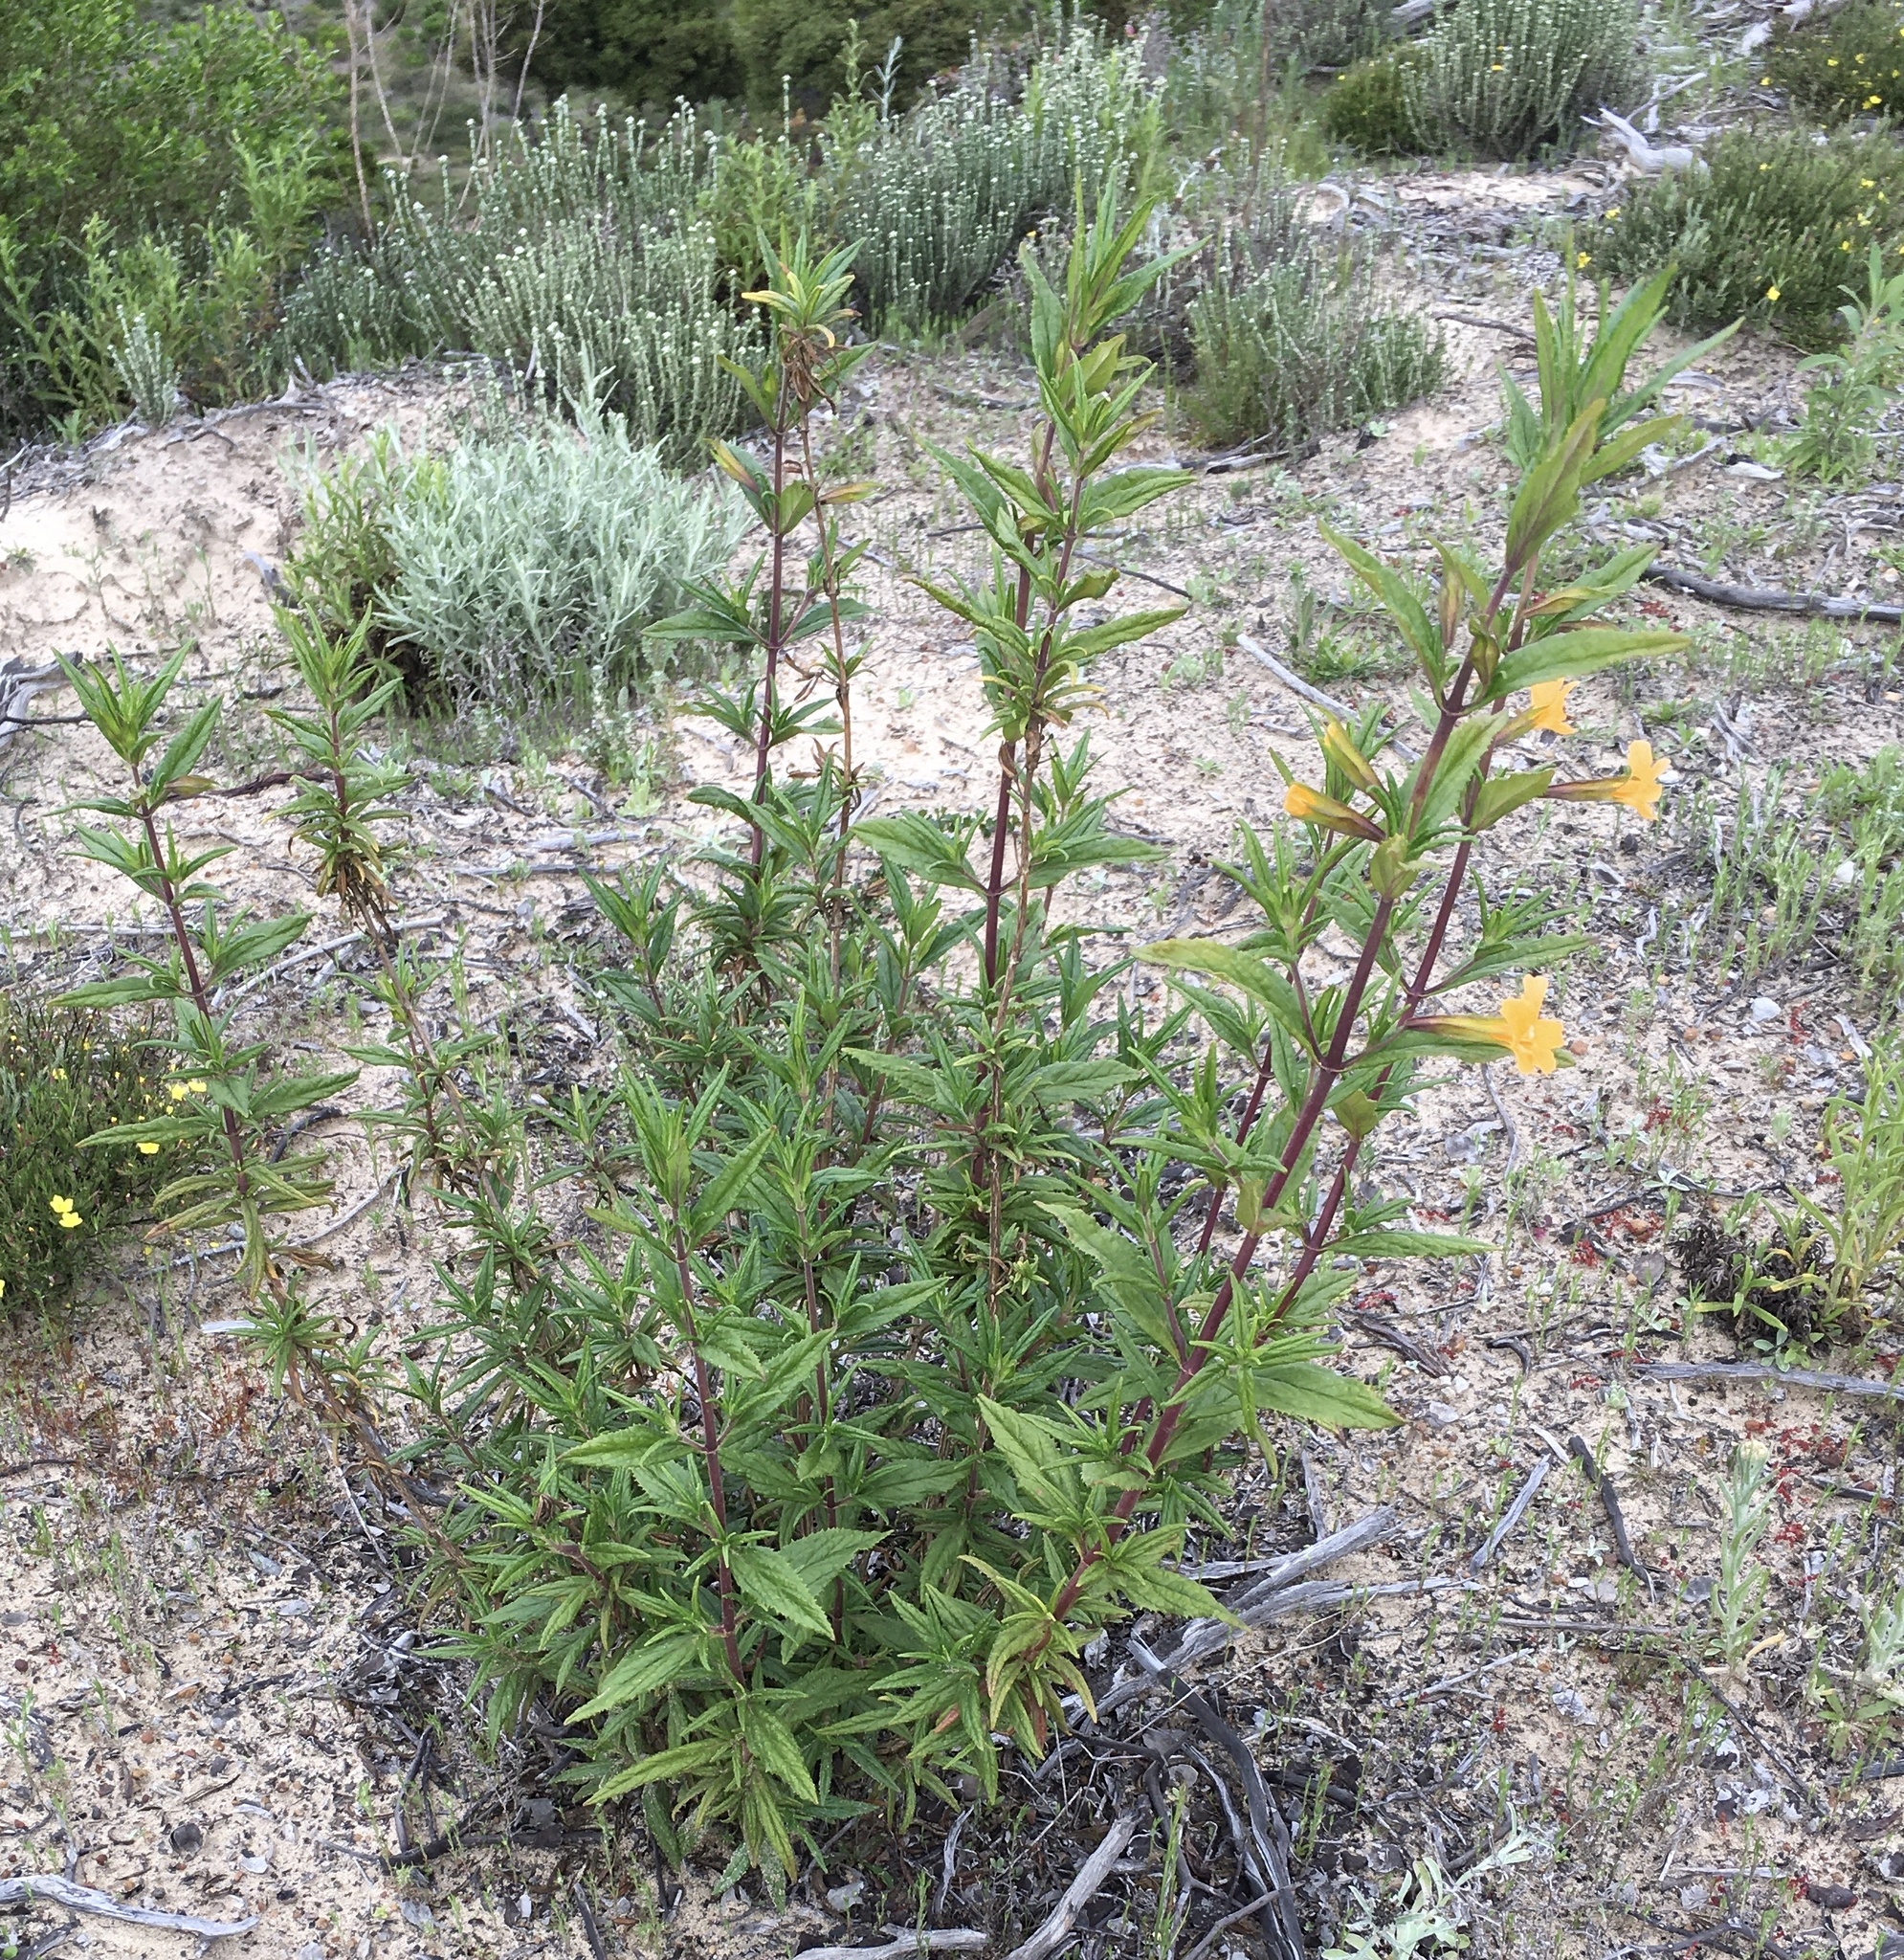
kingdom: Plantae
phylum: Tracheophyta
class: Magnoliopsida
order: Lamiales
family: Phrymaceae
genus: Diplacus
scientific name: Diplacus aurantiacus
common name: Bush monkey-flower
